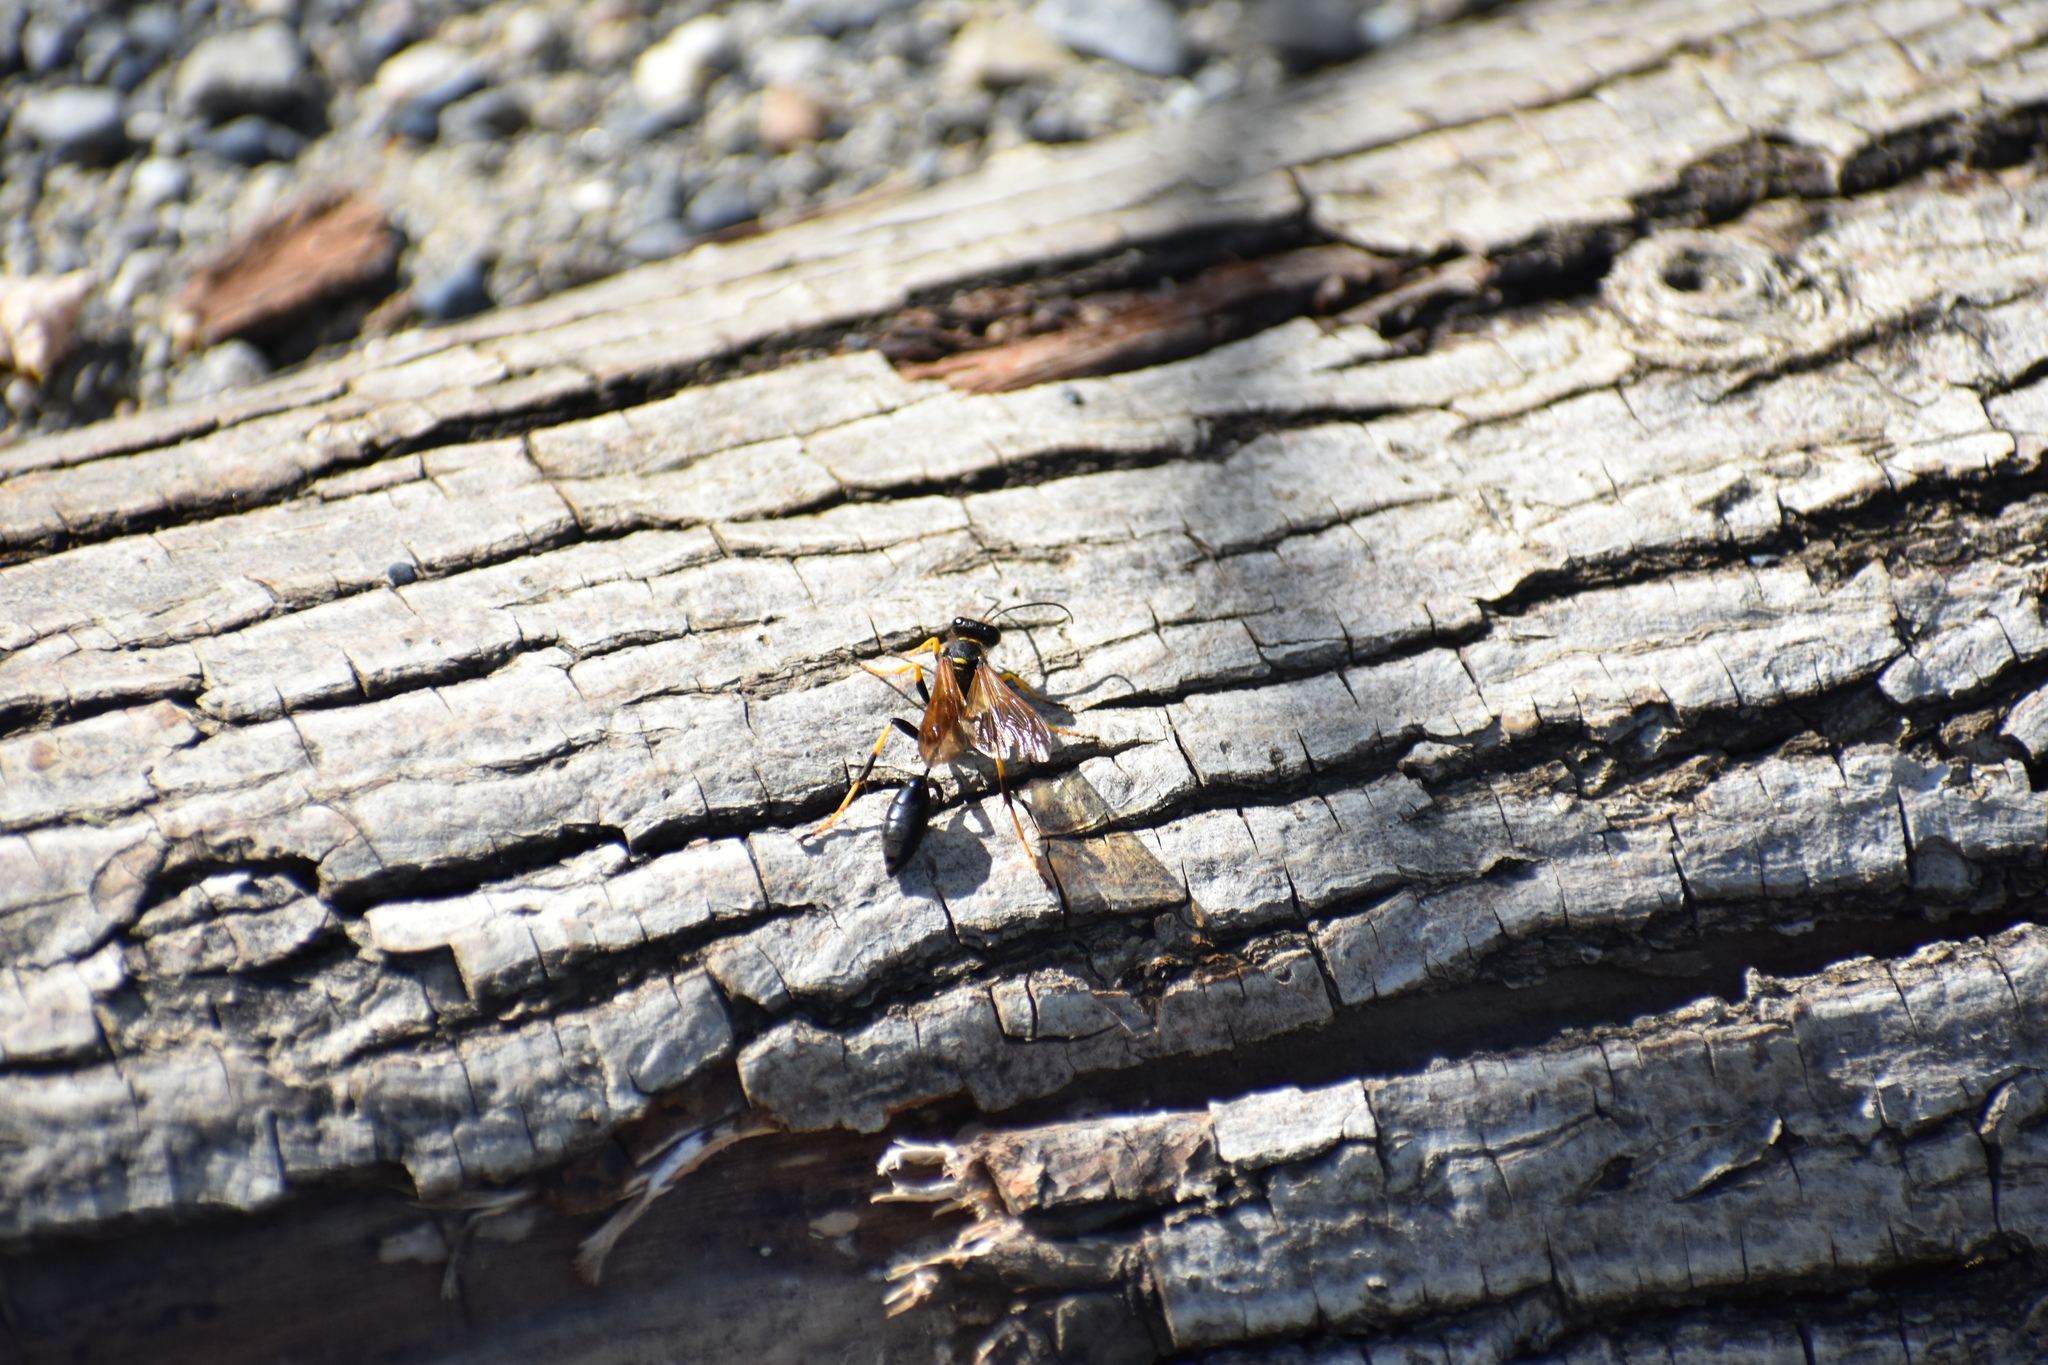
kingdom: Animalia
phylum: Arthropoda
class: Insecta
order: Hymenoptera
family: Sphecidae
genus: Sceliphron
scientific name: Sceliphron caementarium
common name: Mud dauber
